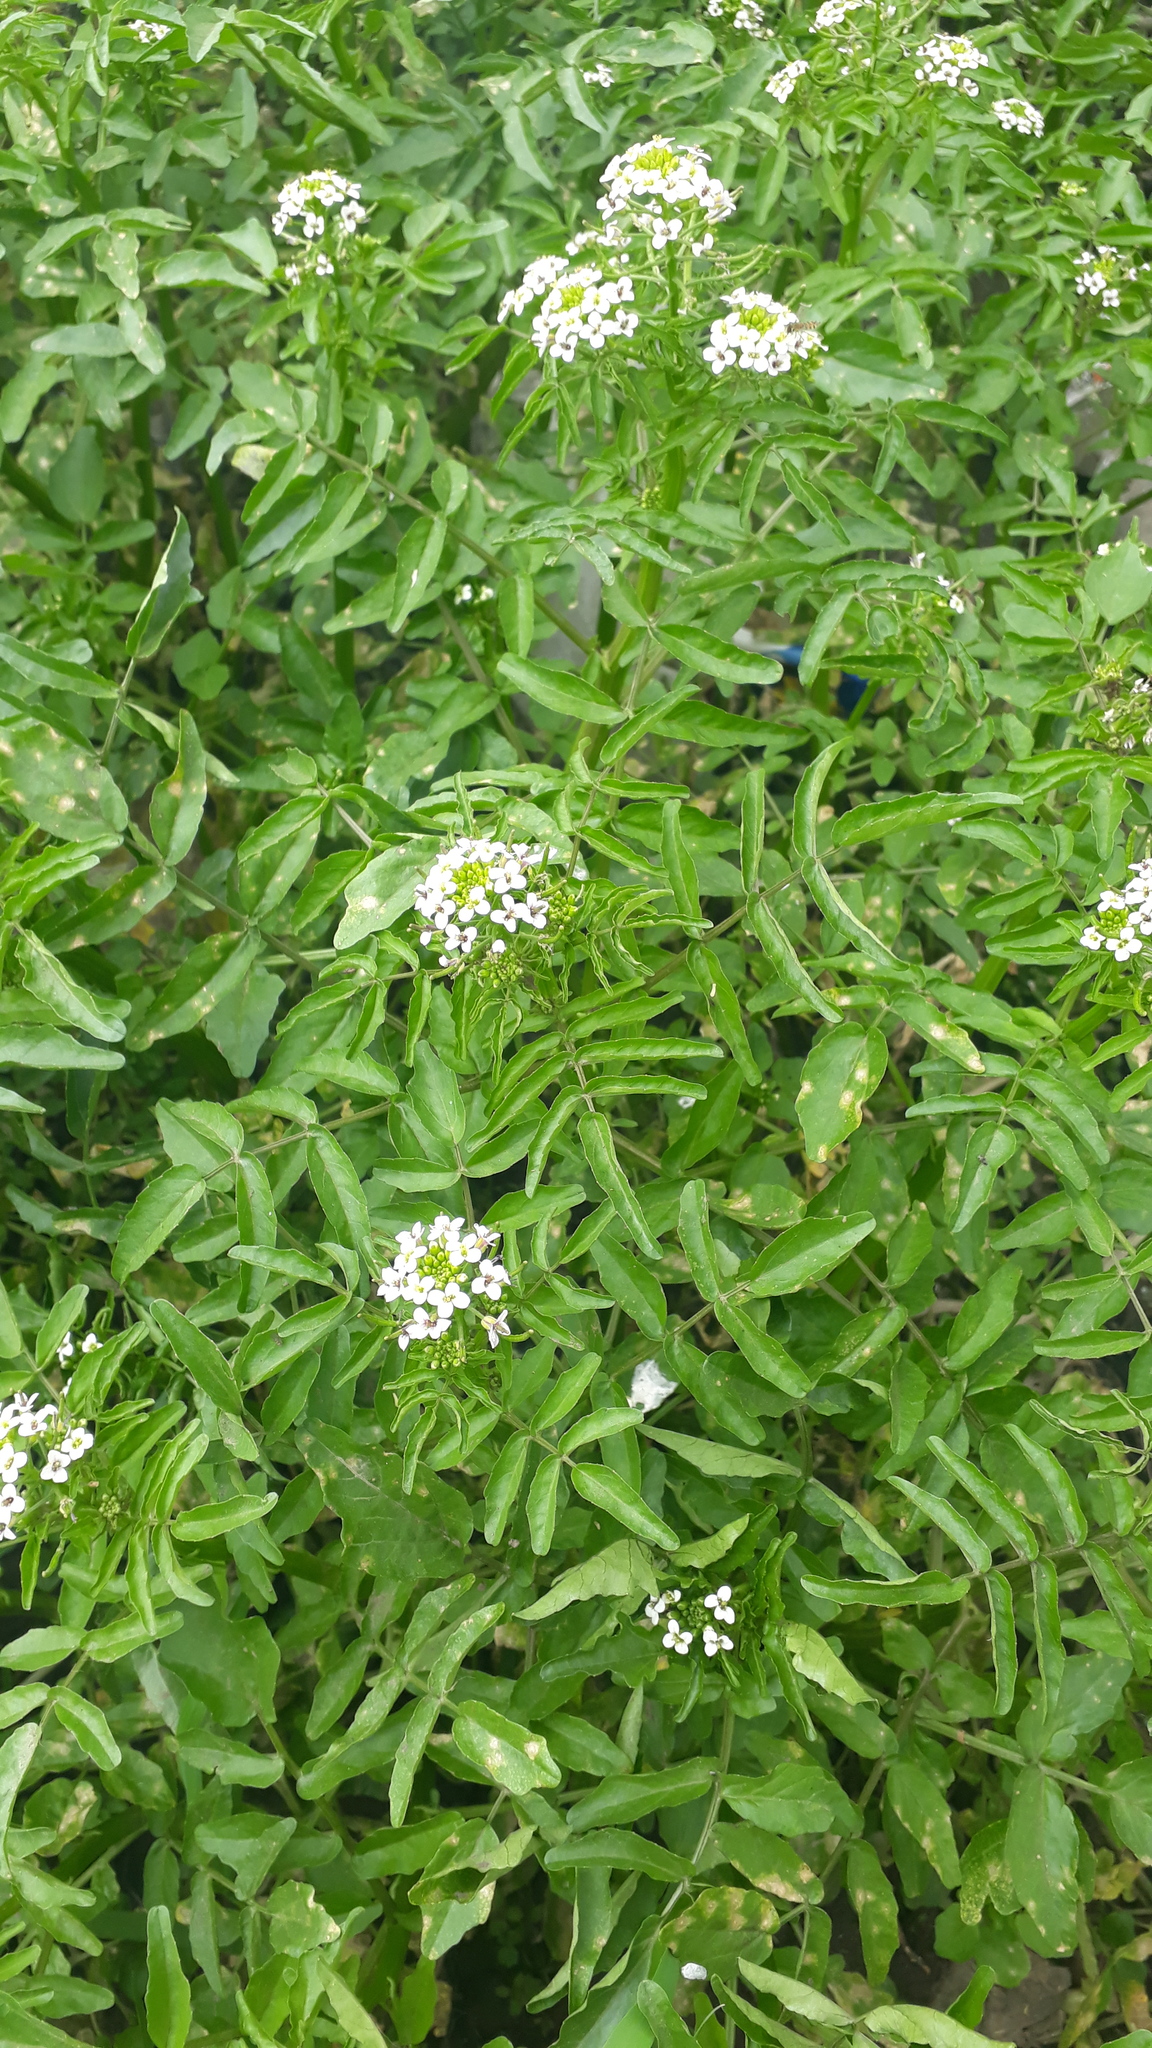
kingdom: Plantae
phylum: Tracheophyta
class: Magnoliopsida
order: Dipsacales
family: Viburnaceae
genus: Sambucus
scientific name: Sambucus australis
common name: Southern elder
